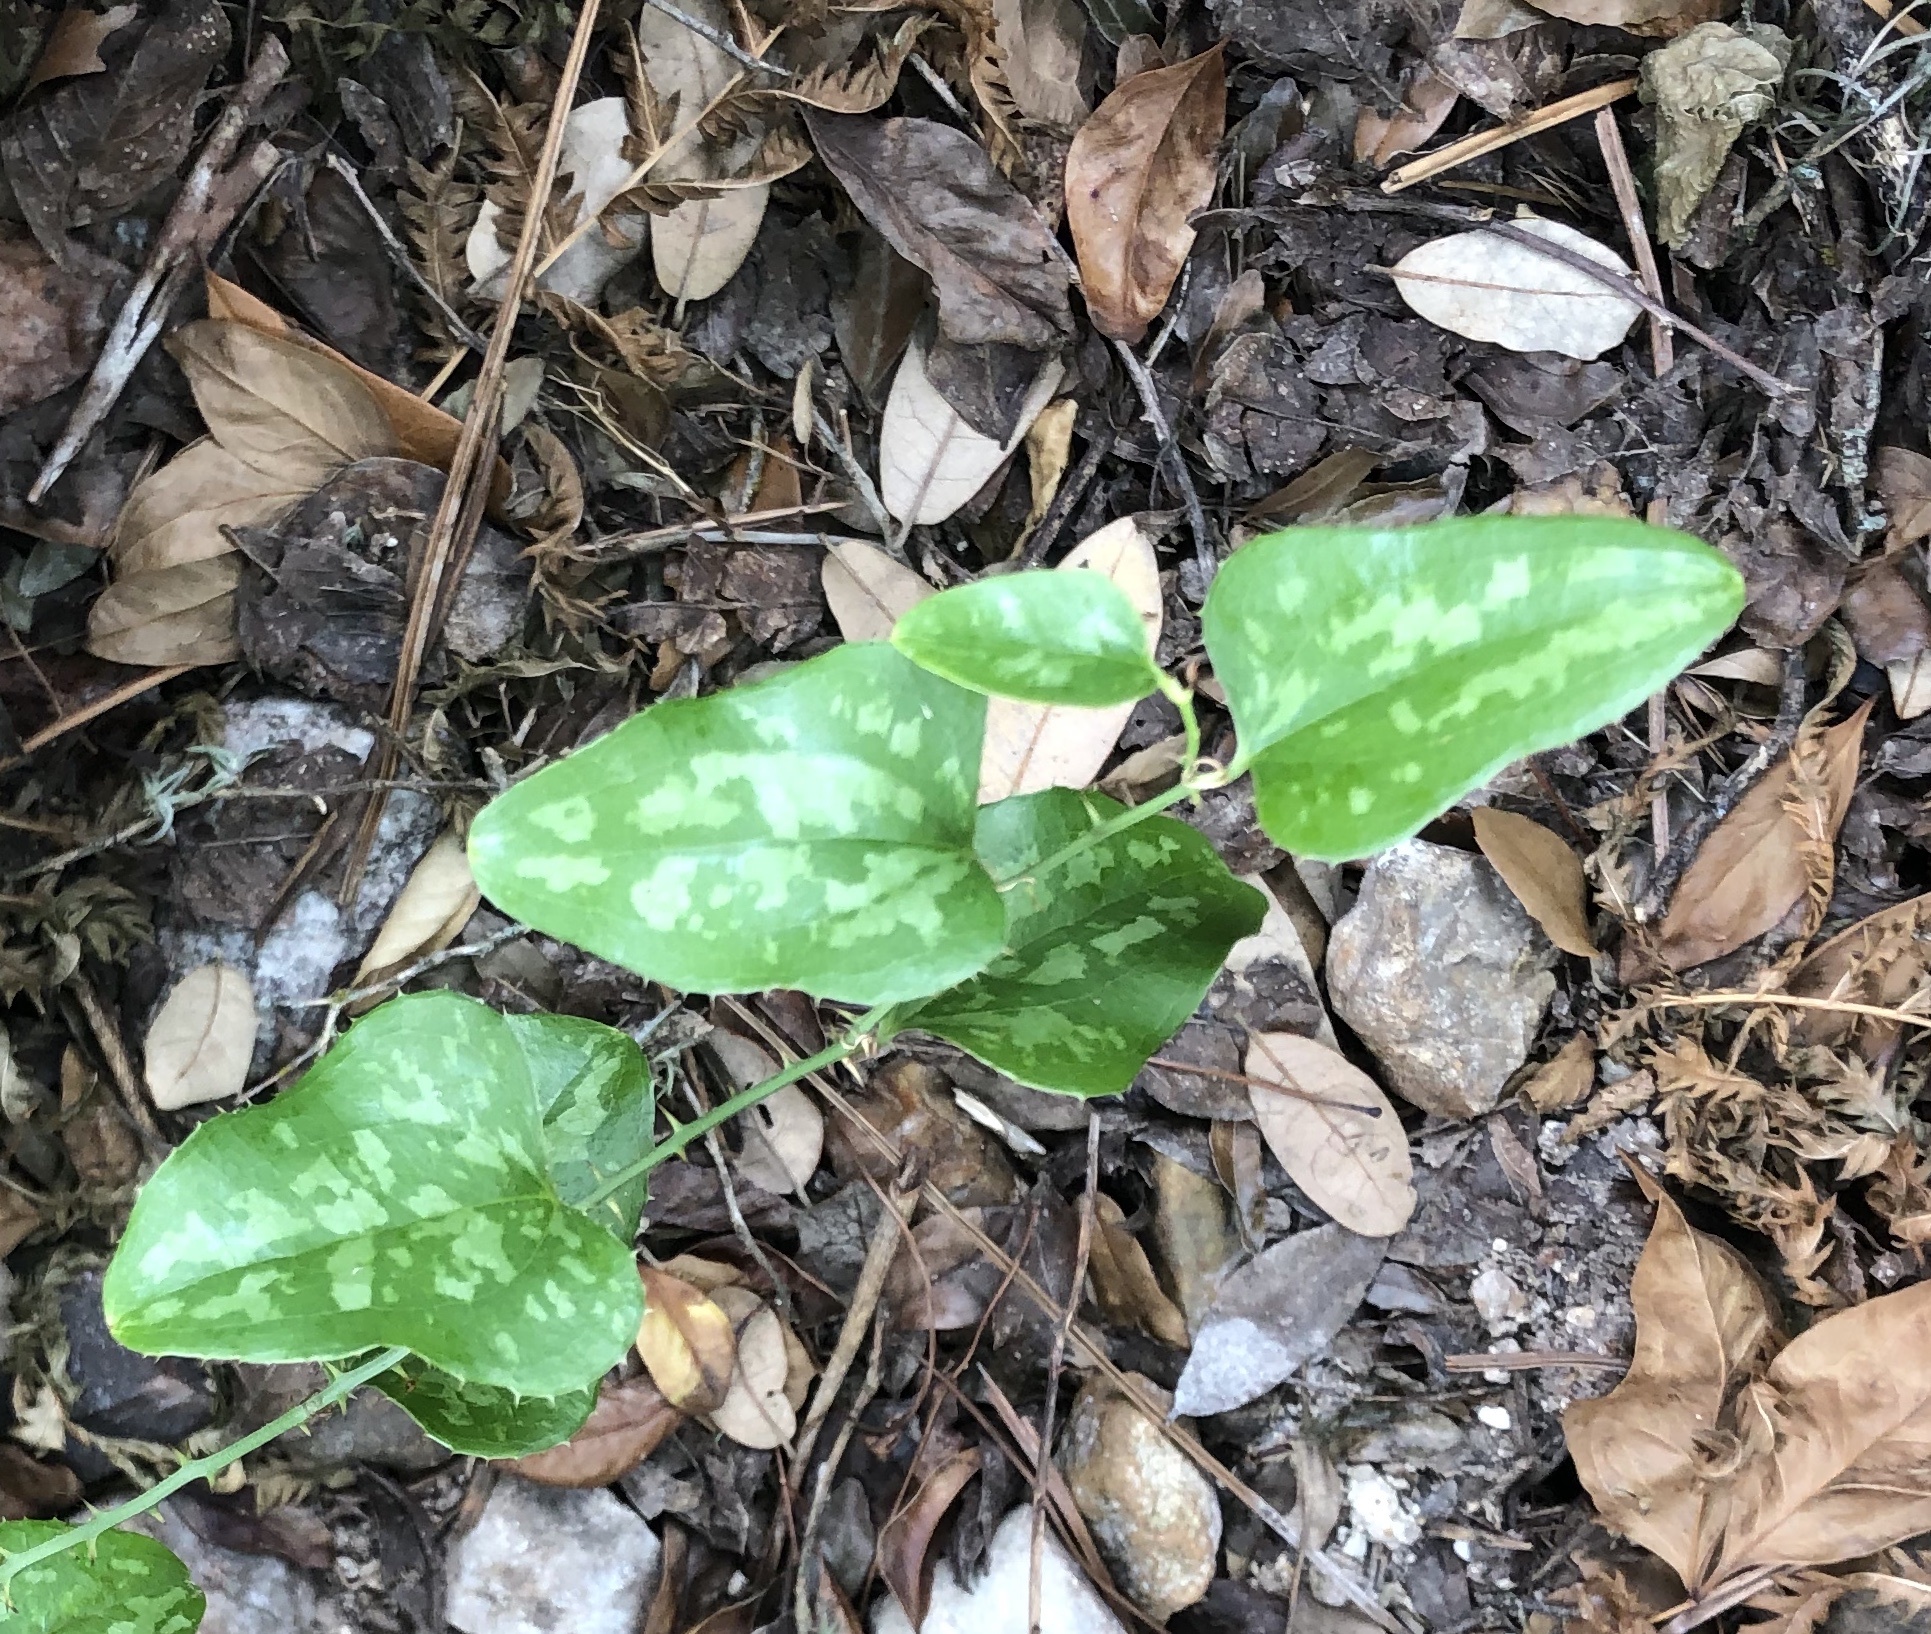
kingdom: Plantae
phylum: Tracheophyta
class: Liliopsida
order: Liliales
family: Smilacaceae
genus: Smilax
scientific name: Smilax bona-nox
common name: Catbrier
